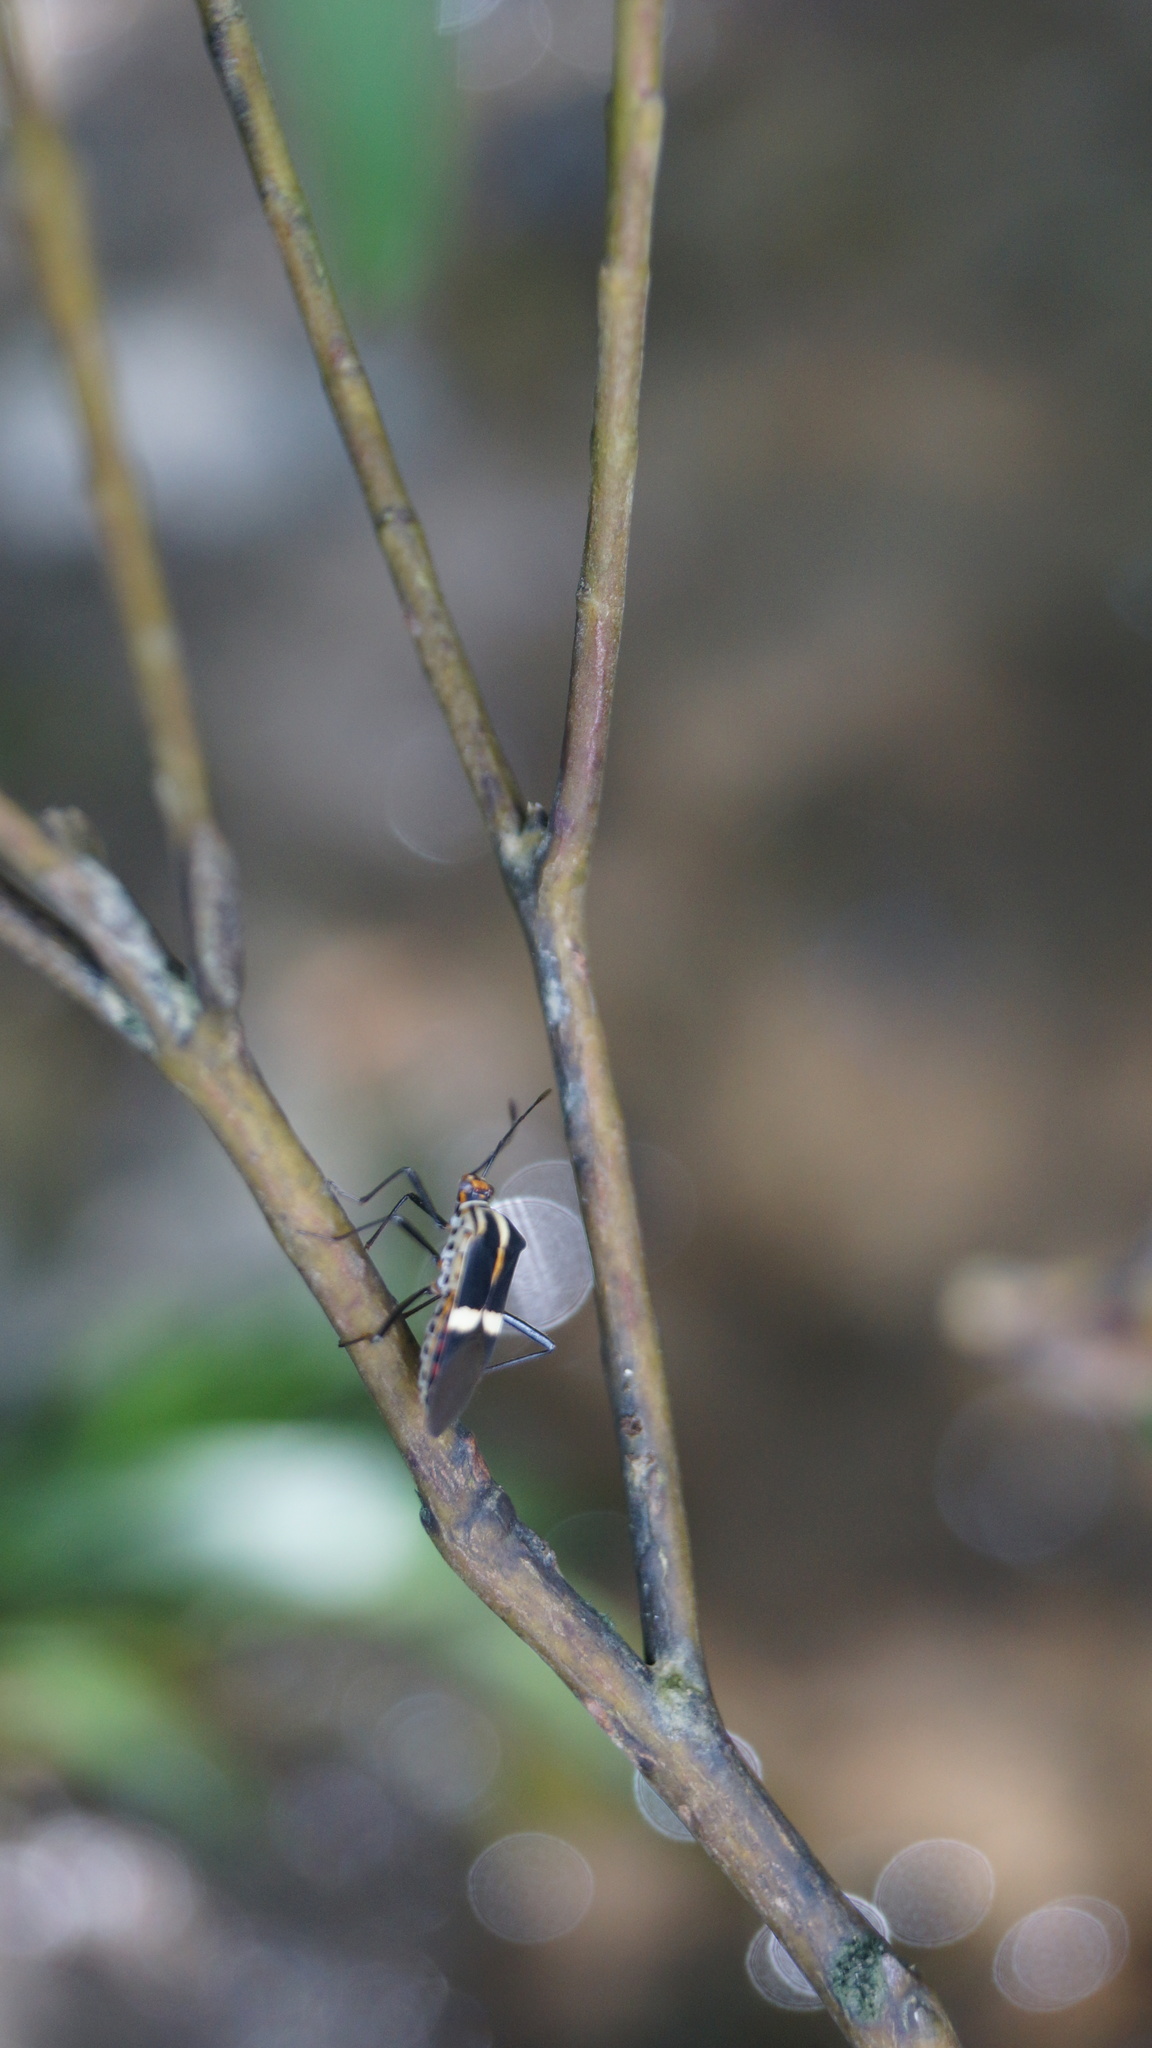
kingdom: Animalia
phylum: Arthropoda
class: Insecta
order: Hemiptera
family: Coreidae
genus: Hypselonotus
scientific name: Hypselonotus interruptus
